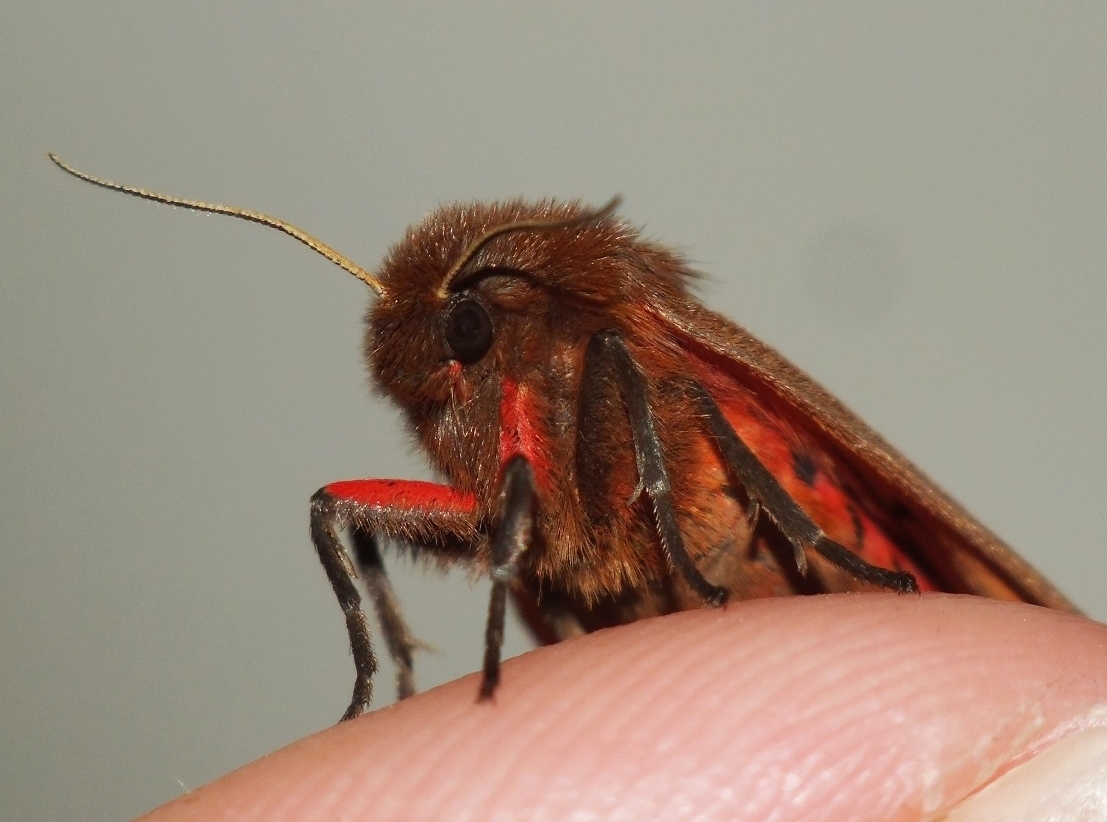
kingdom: Animalia
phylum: Arthropoda
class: Insecta
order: Lepidoptera
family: Erebidae
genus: Phragmatobia
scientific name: Phragmatobia fuliginosa
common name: Ruby tiger
